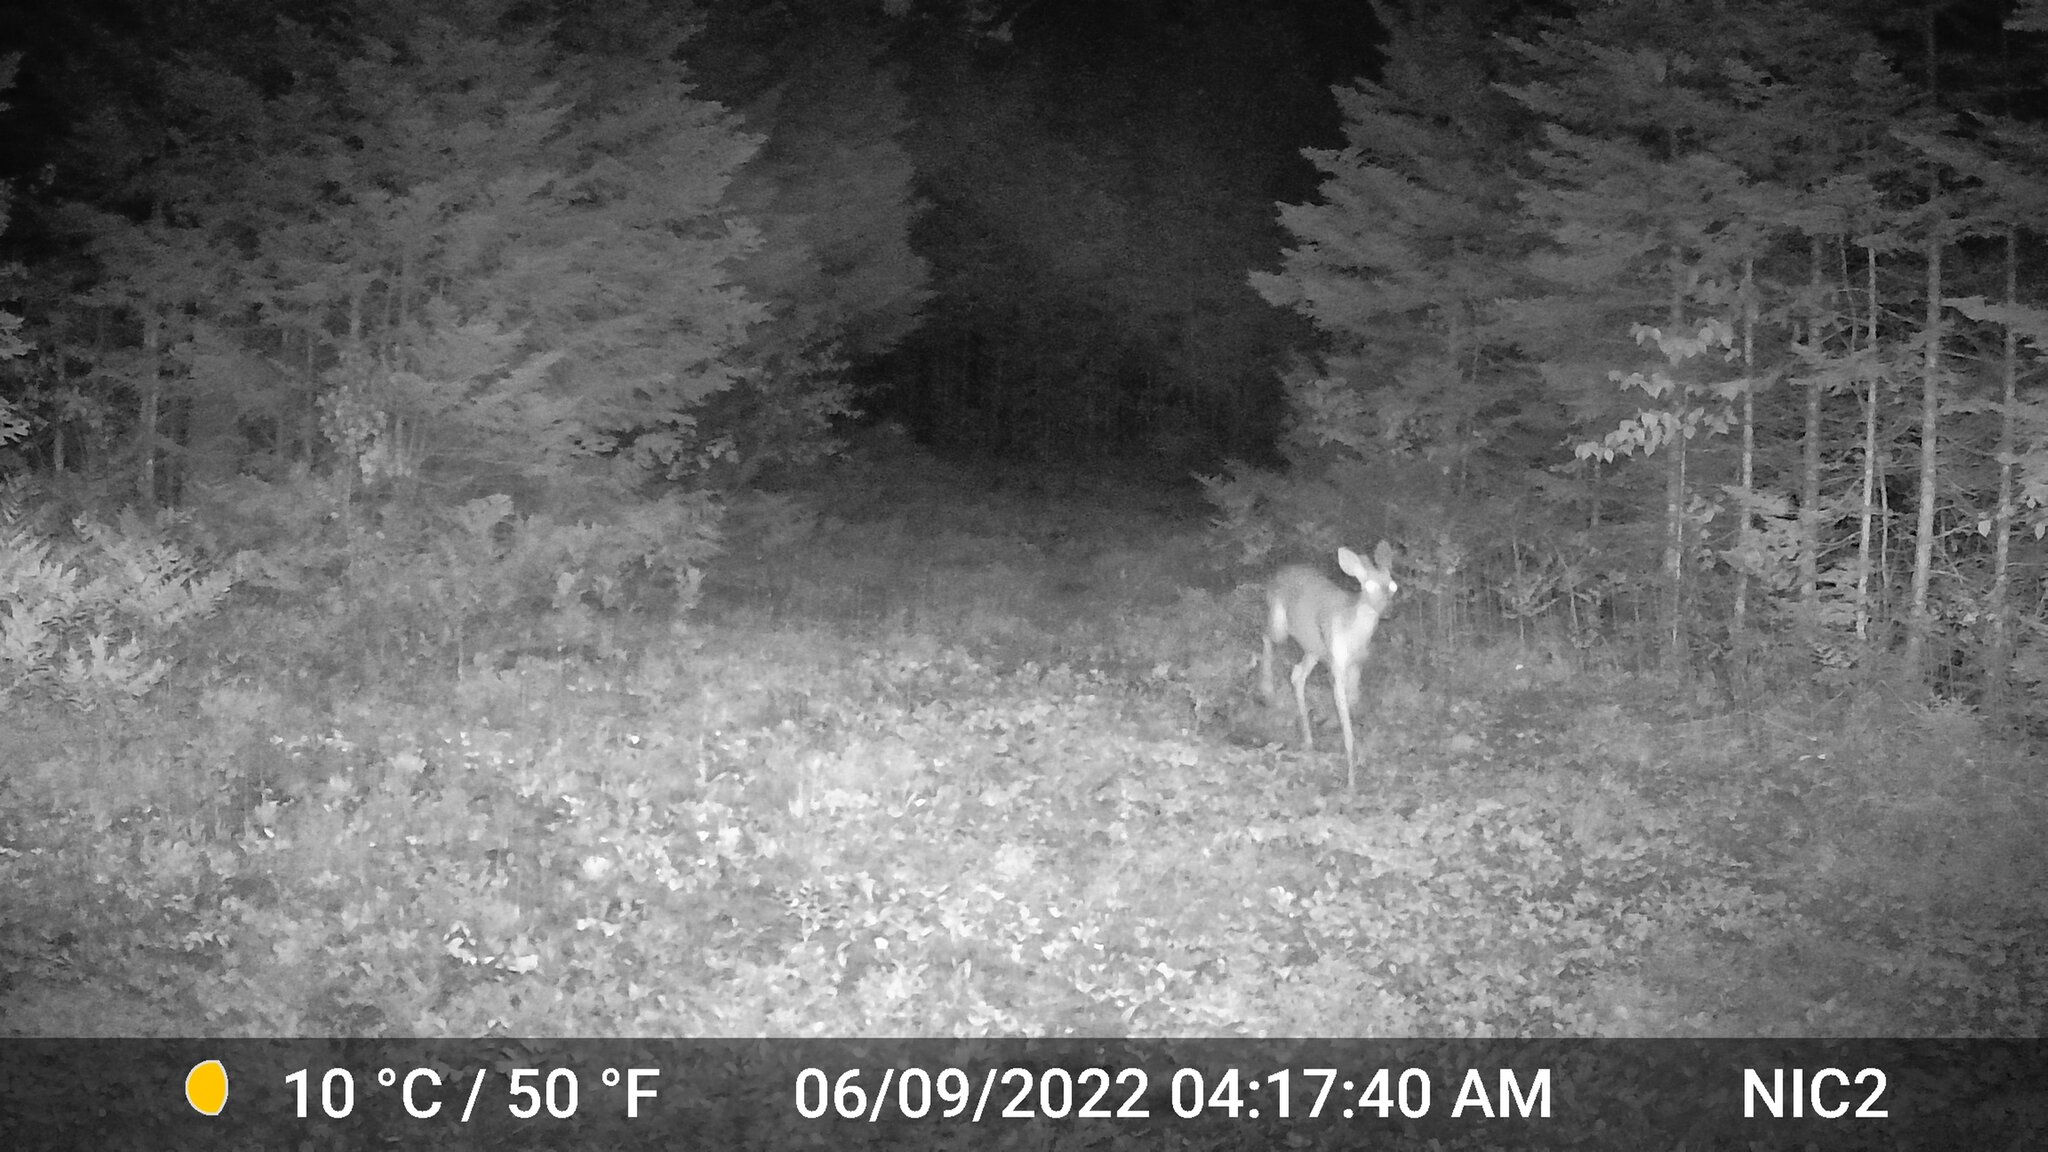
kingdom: Animalia
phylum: Chordata
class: Mammalia
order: Artiodactyla
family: Cervidae
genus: Odocoileus
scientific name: Odocoileus virginianus
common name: White-tailed deer
